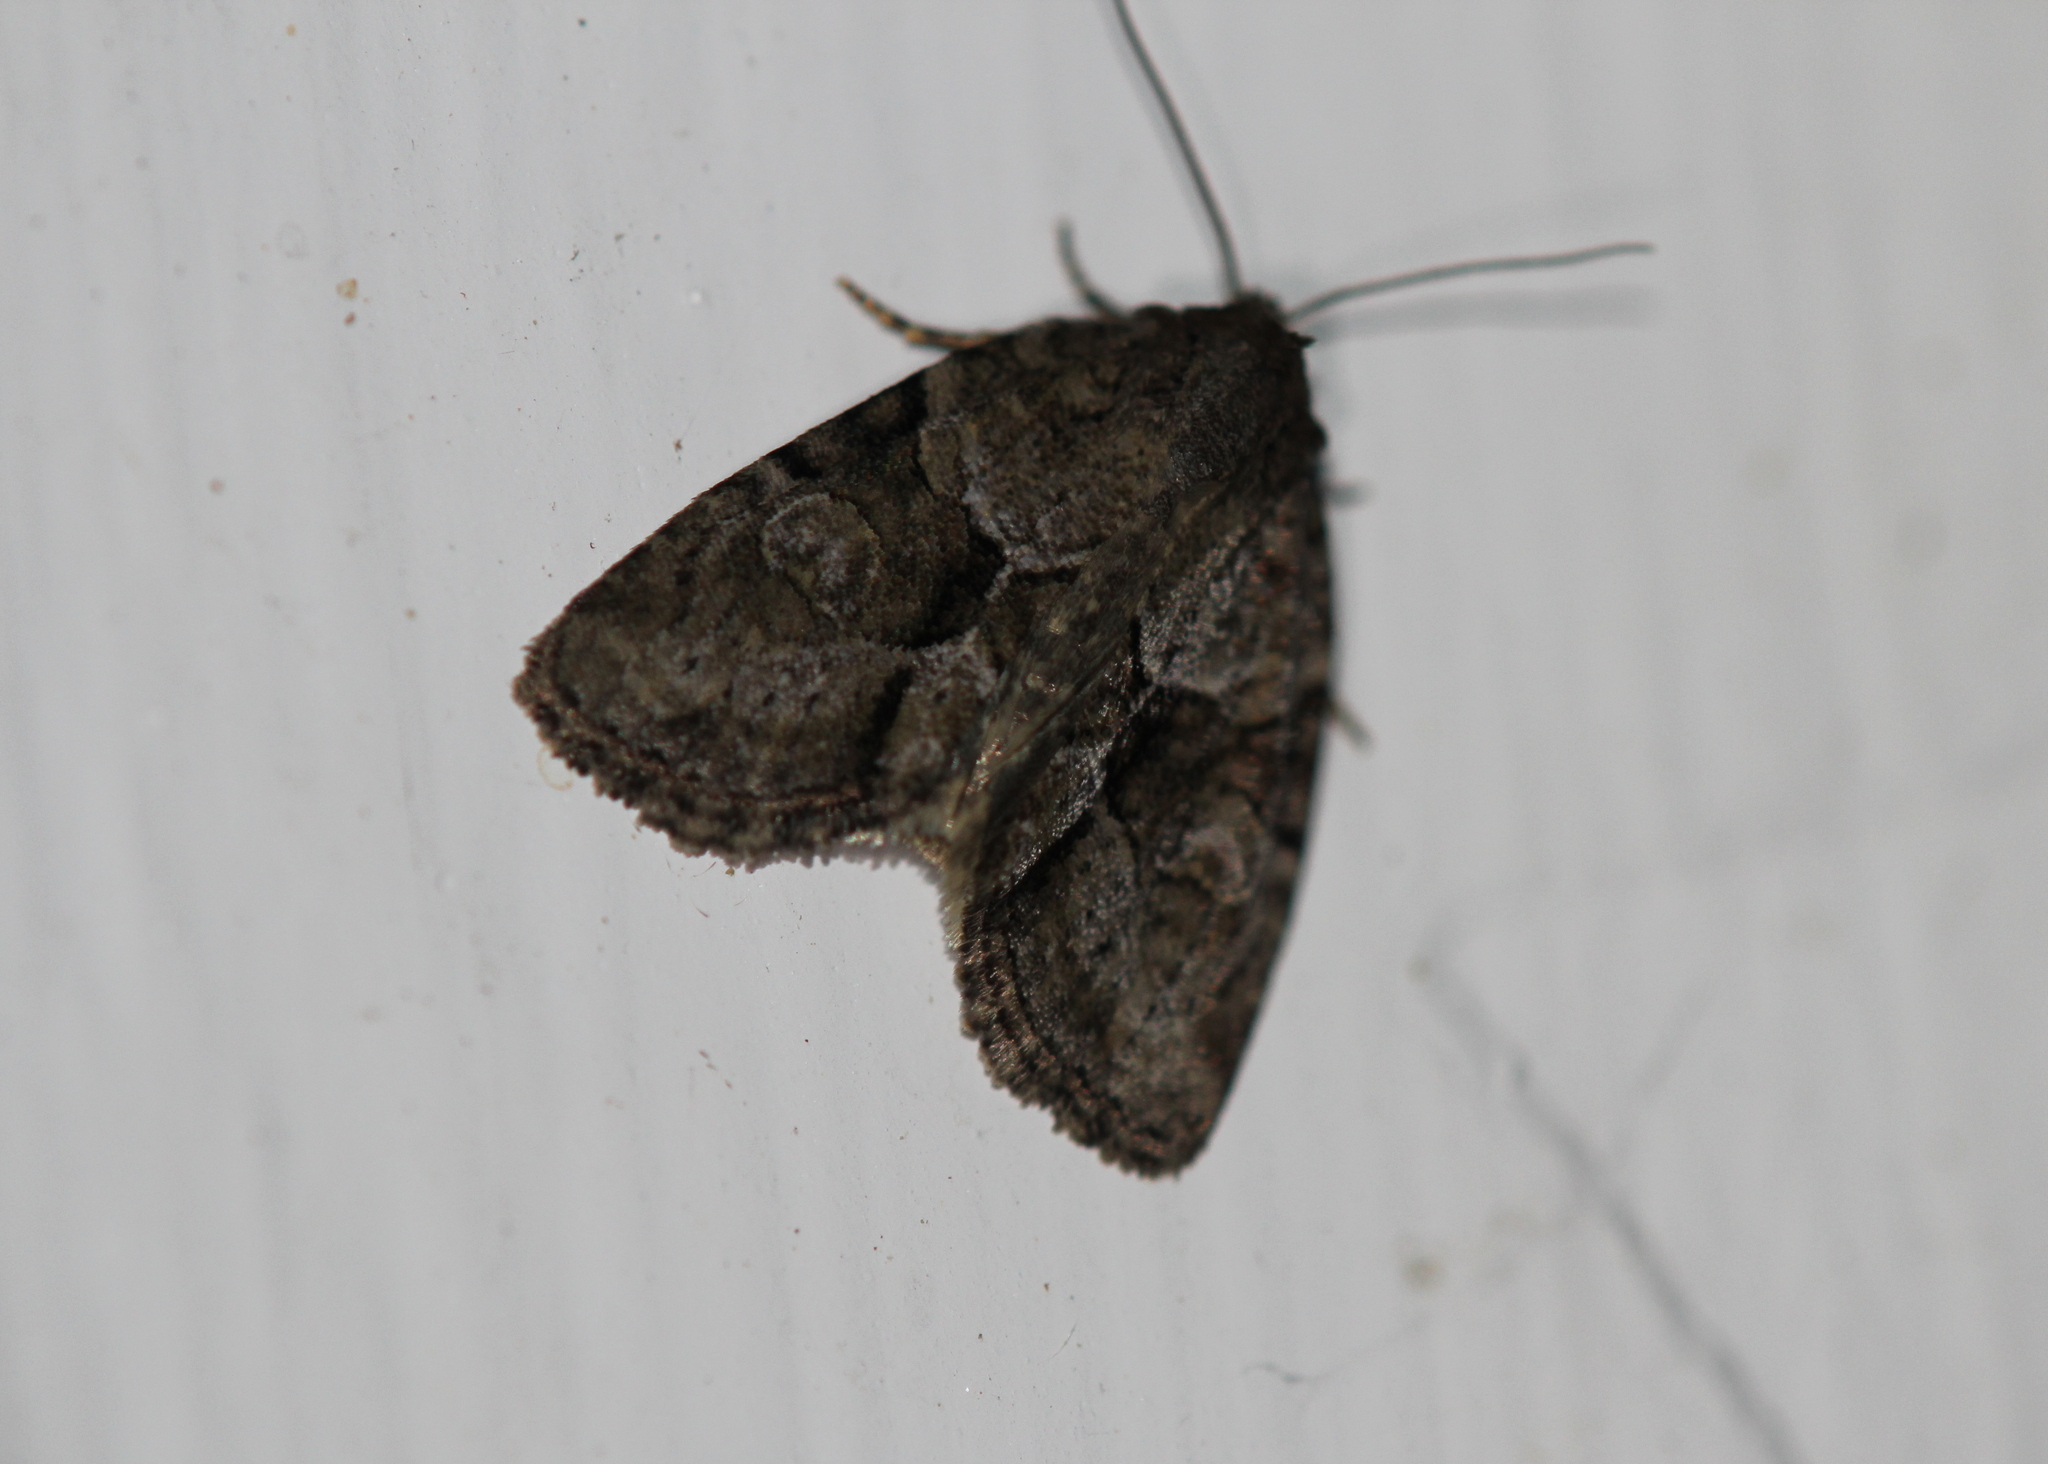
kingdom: Animalia
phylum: Arthropoda
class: Insecta
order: Lepidoptera
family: Noctuidae
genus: Neoligia
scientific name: Neoligia exhausta
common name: Exhausted brocade
